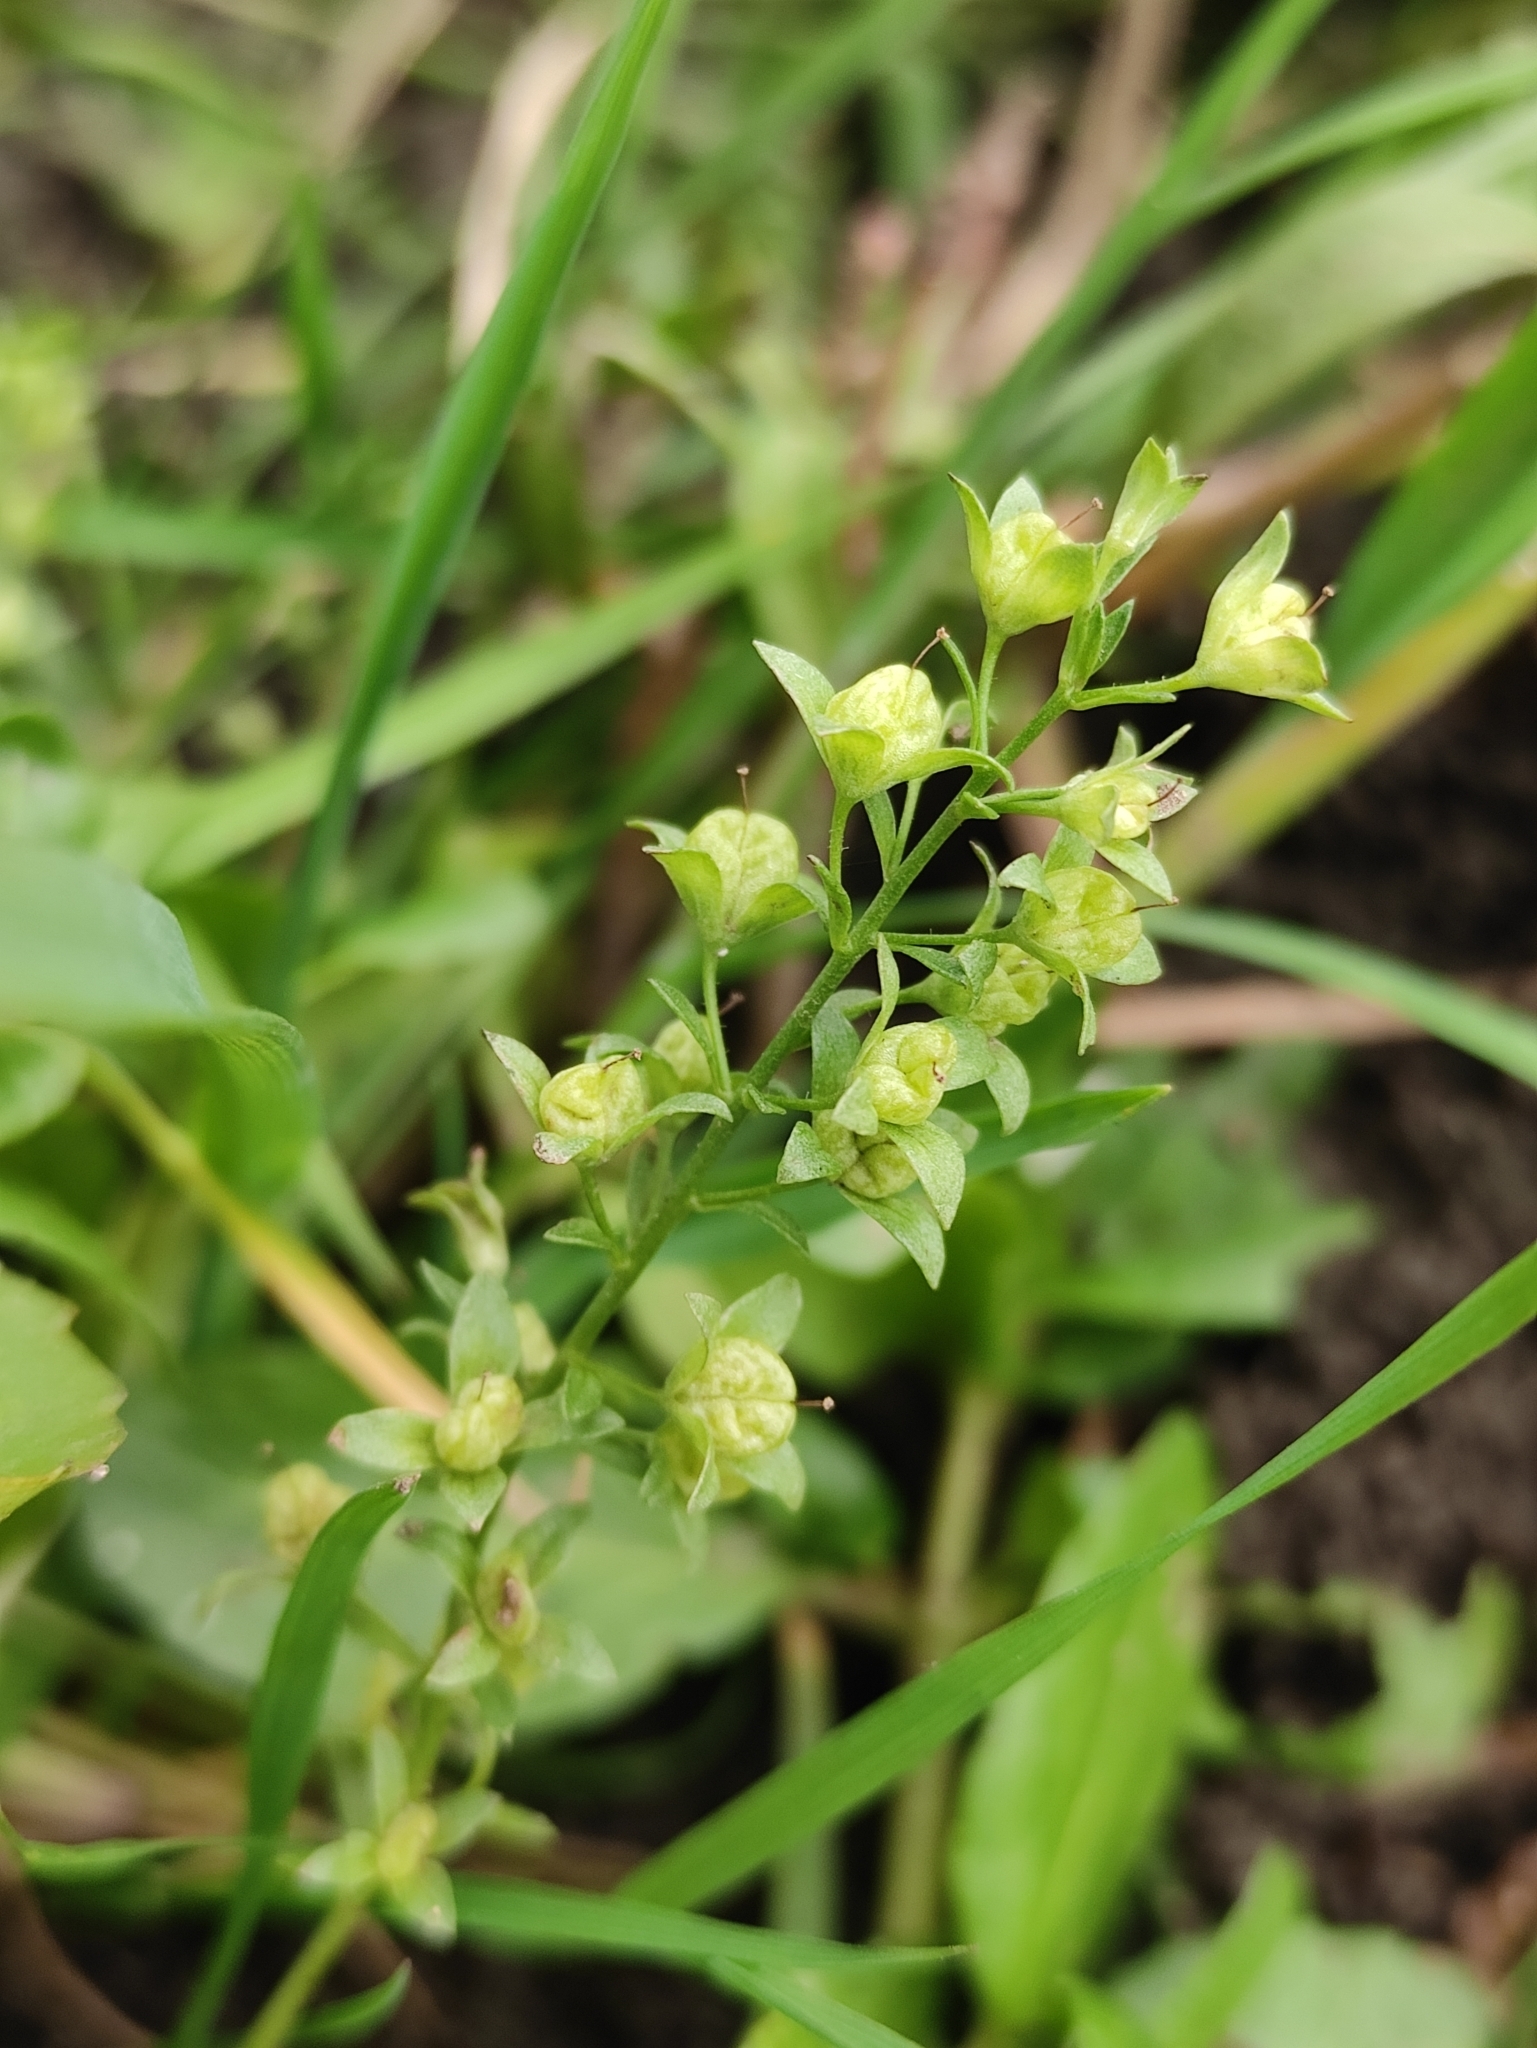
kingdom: Plantae
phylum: Tracheophyta
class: Magnoliopsida
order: Lamiales
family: Plantaginaceae
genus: Veronica
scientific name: Veronica beccabunga
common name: Brooklime
